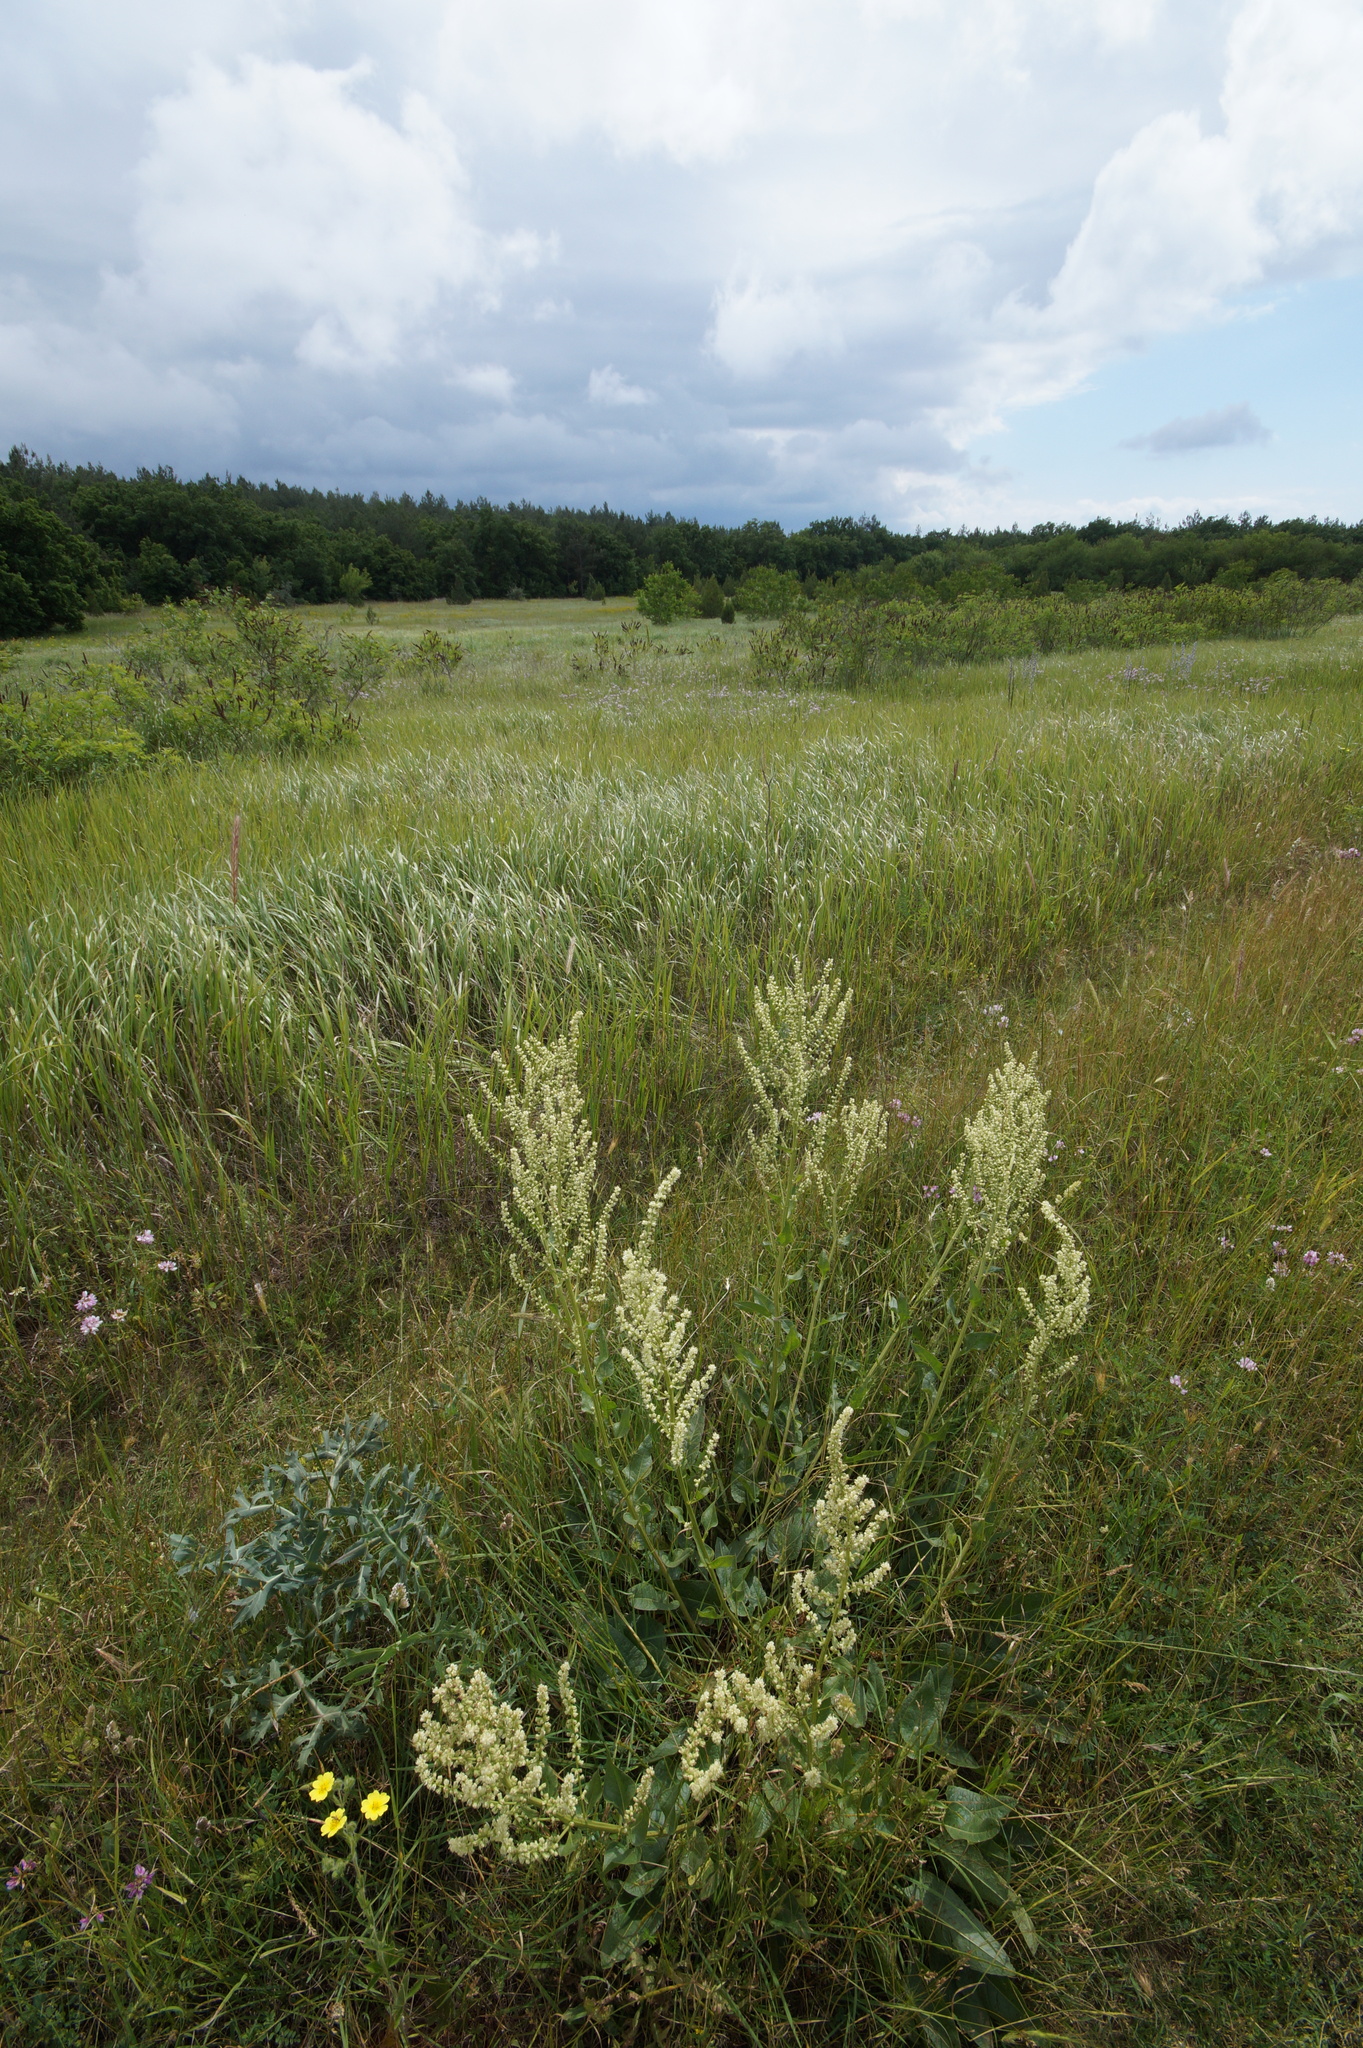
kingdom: Plantae
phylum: Tracheophyta
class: Magnoliopsida
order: Caryophyllales
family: Amaranthaceae
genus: Beta
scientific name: Beta trigyna
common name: Caucasian beet
